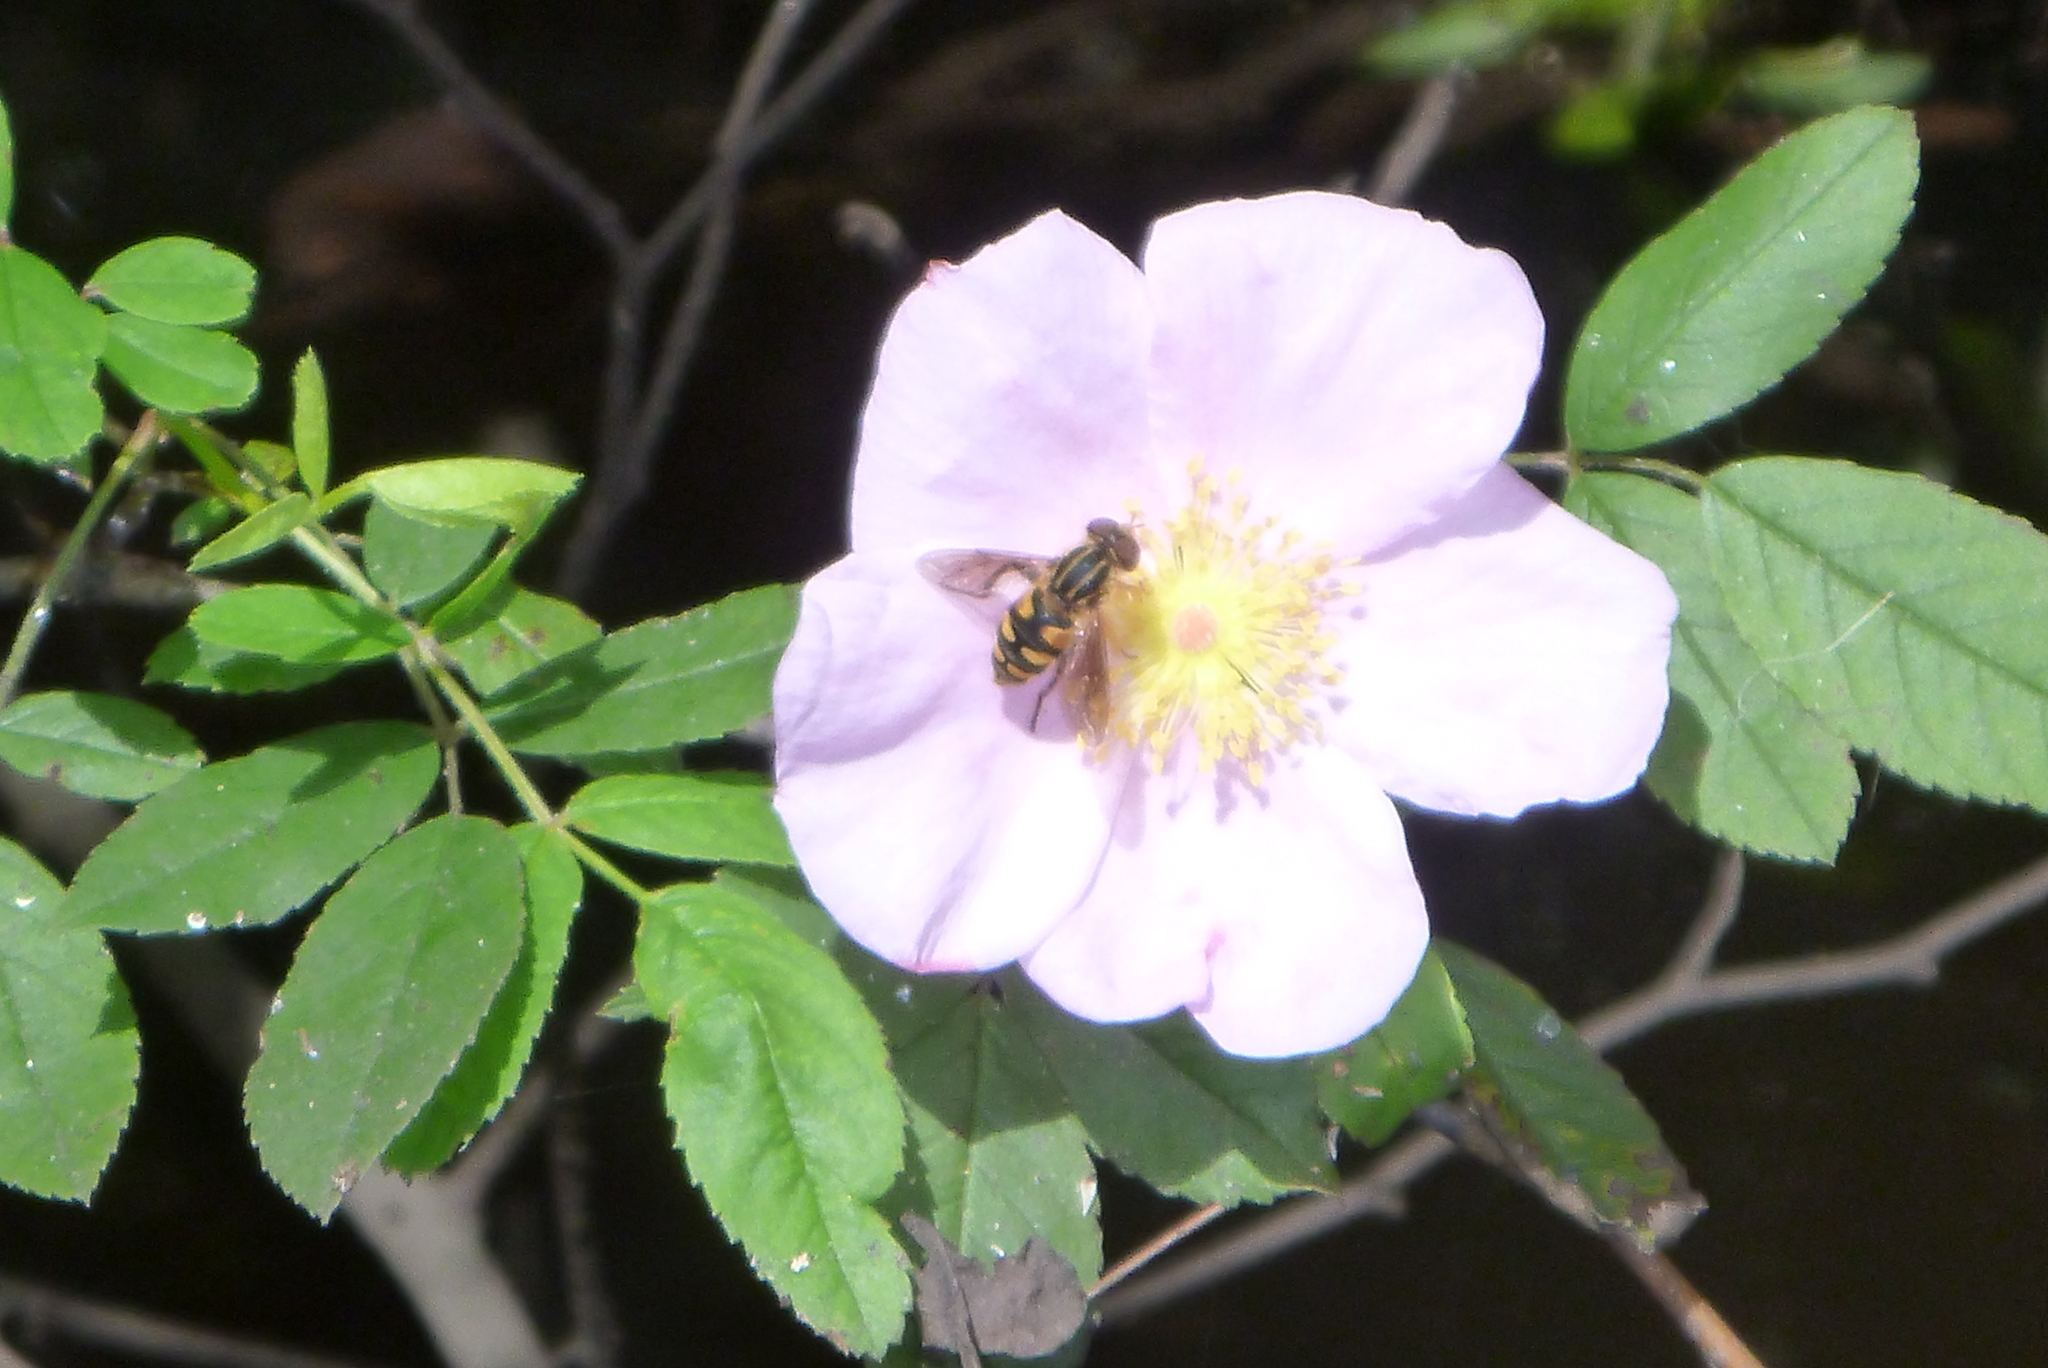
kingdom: Animalia
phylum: Arthropoda
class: Insecta
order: Diptera
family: Syrphidae
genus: Parhelophilus
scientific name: Parhelophilus flavifacies
